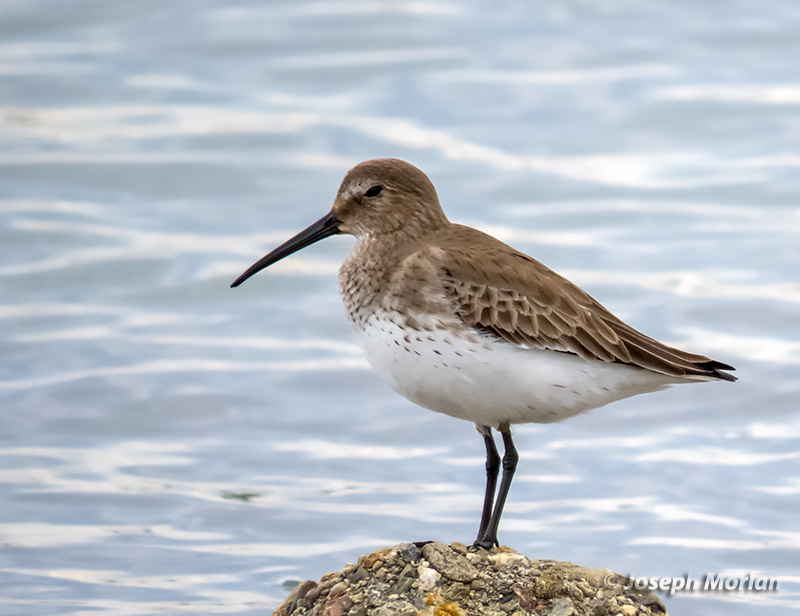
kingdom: Animalia
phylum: Chordata
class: Aves
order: Charadriiformes
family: Scolopacidae
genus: Calidris
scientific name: Calidris alpina
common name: Dunlin
